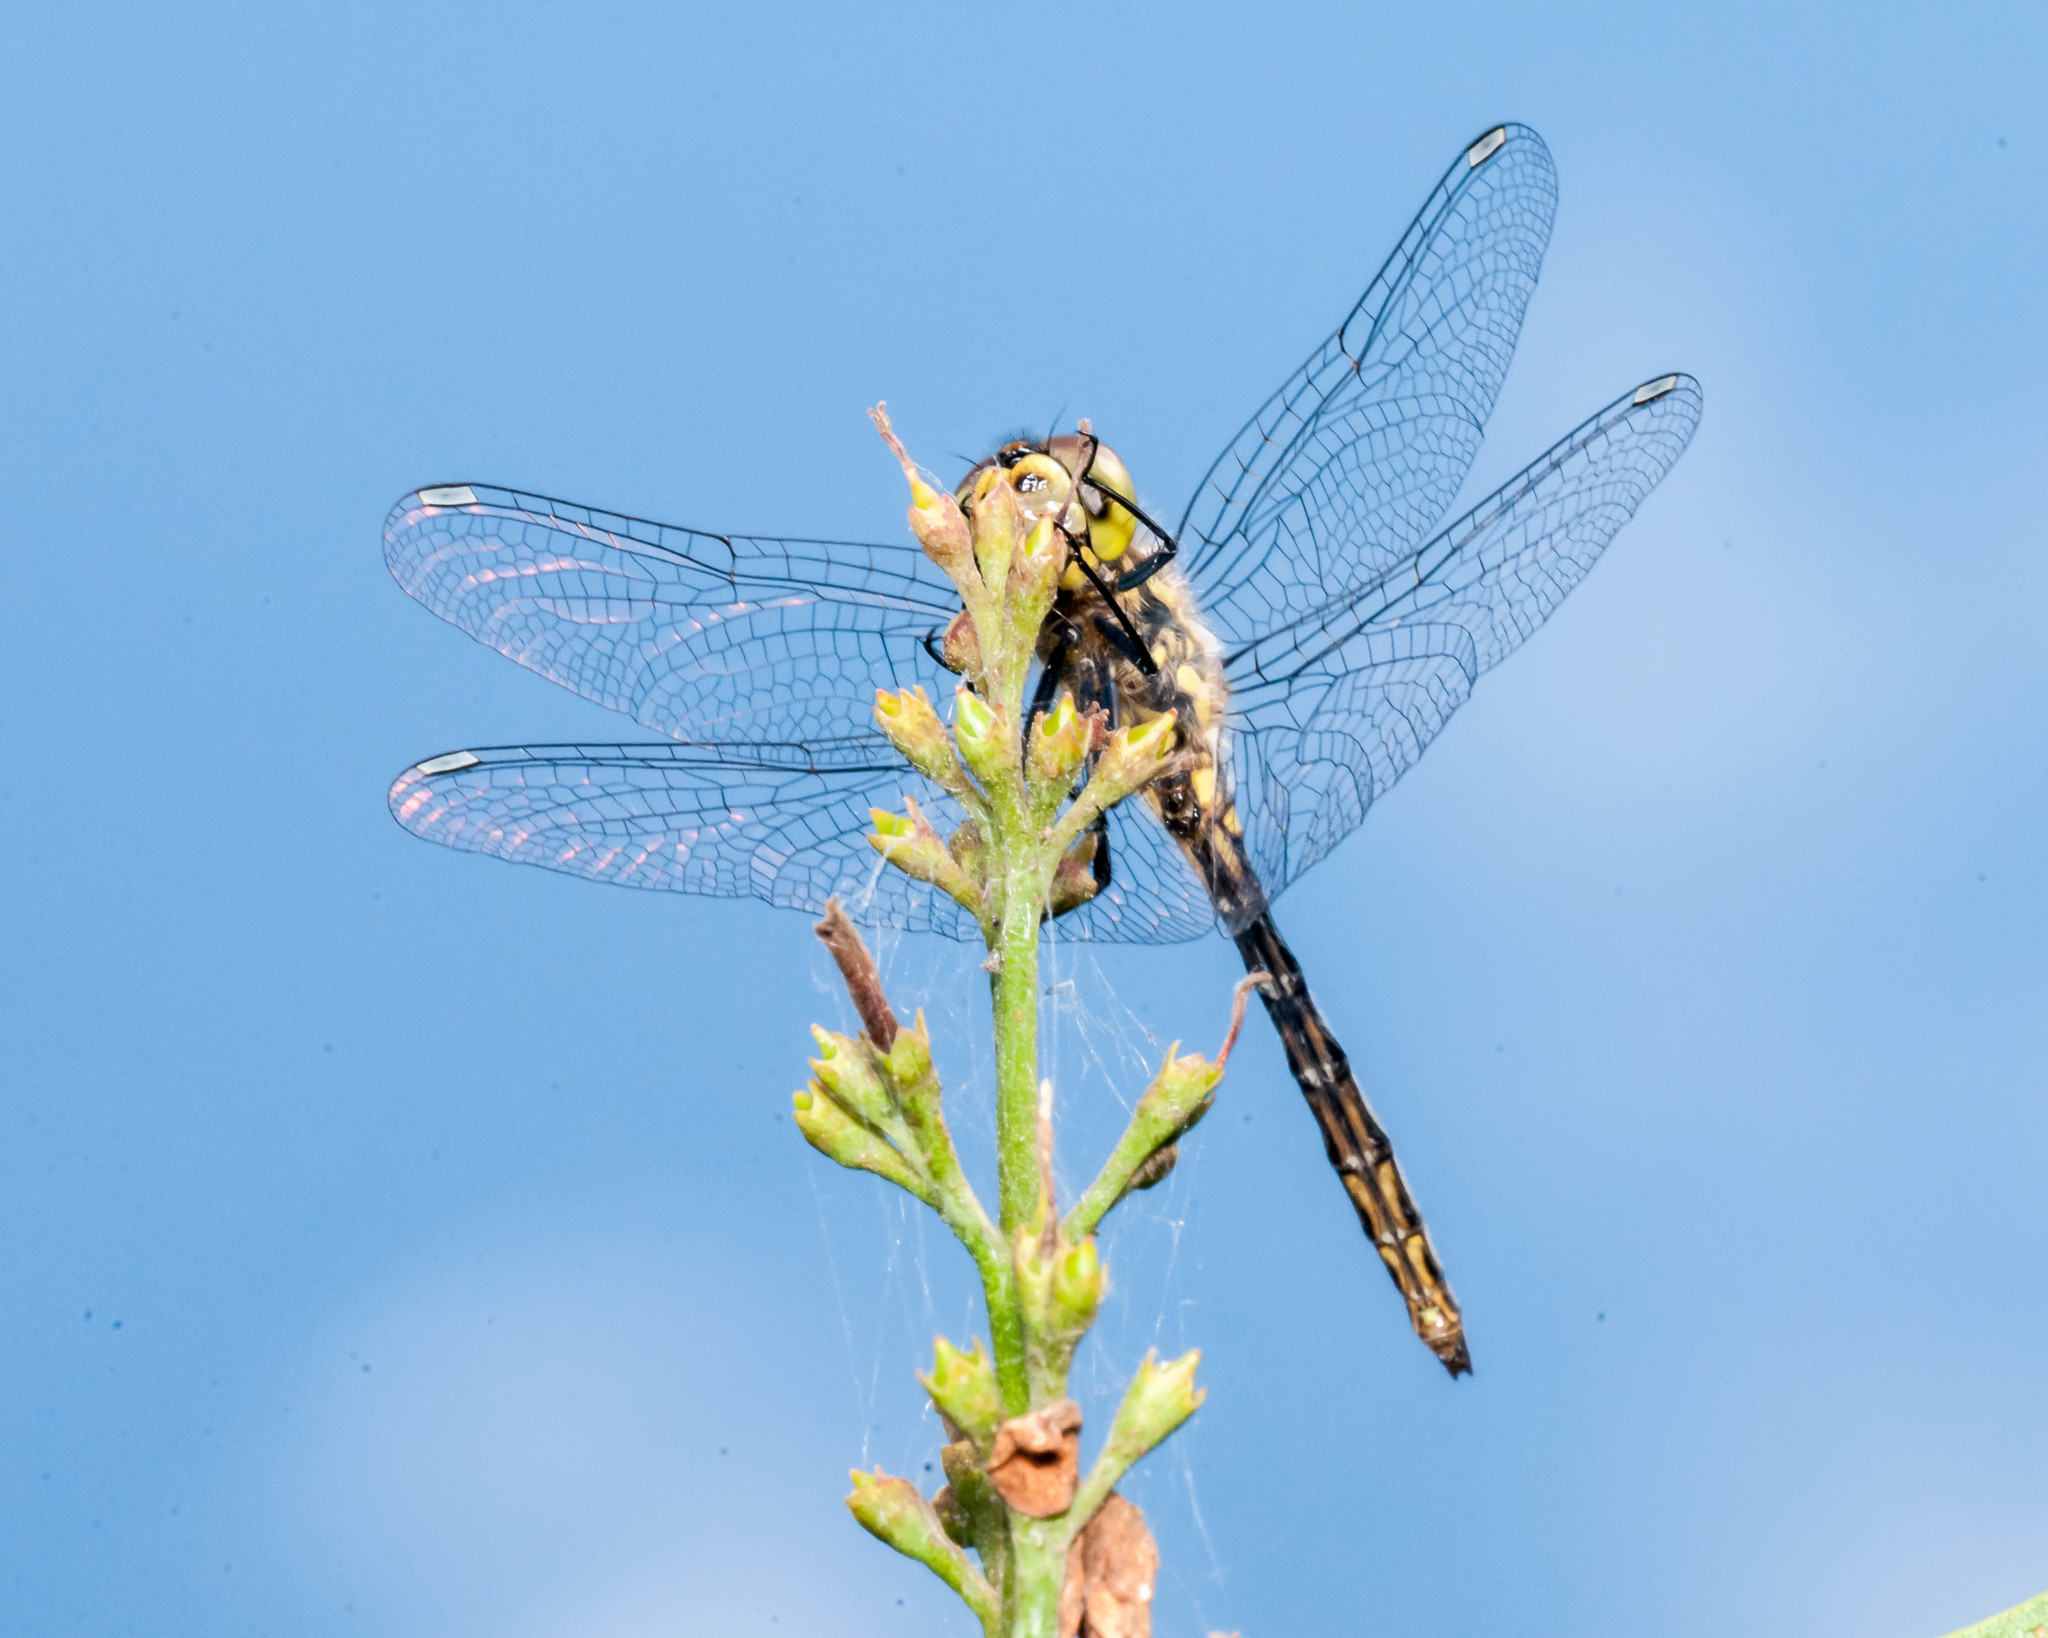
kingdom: Animalia
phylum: Arthropoda
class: Insecta
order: Odonata
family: Libellulidae
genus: Sympetrum
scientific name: Sympetrum danae
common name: Black darter
